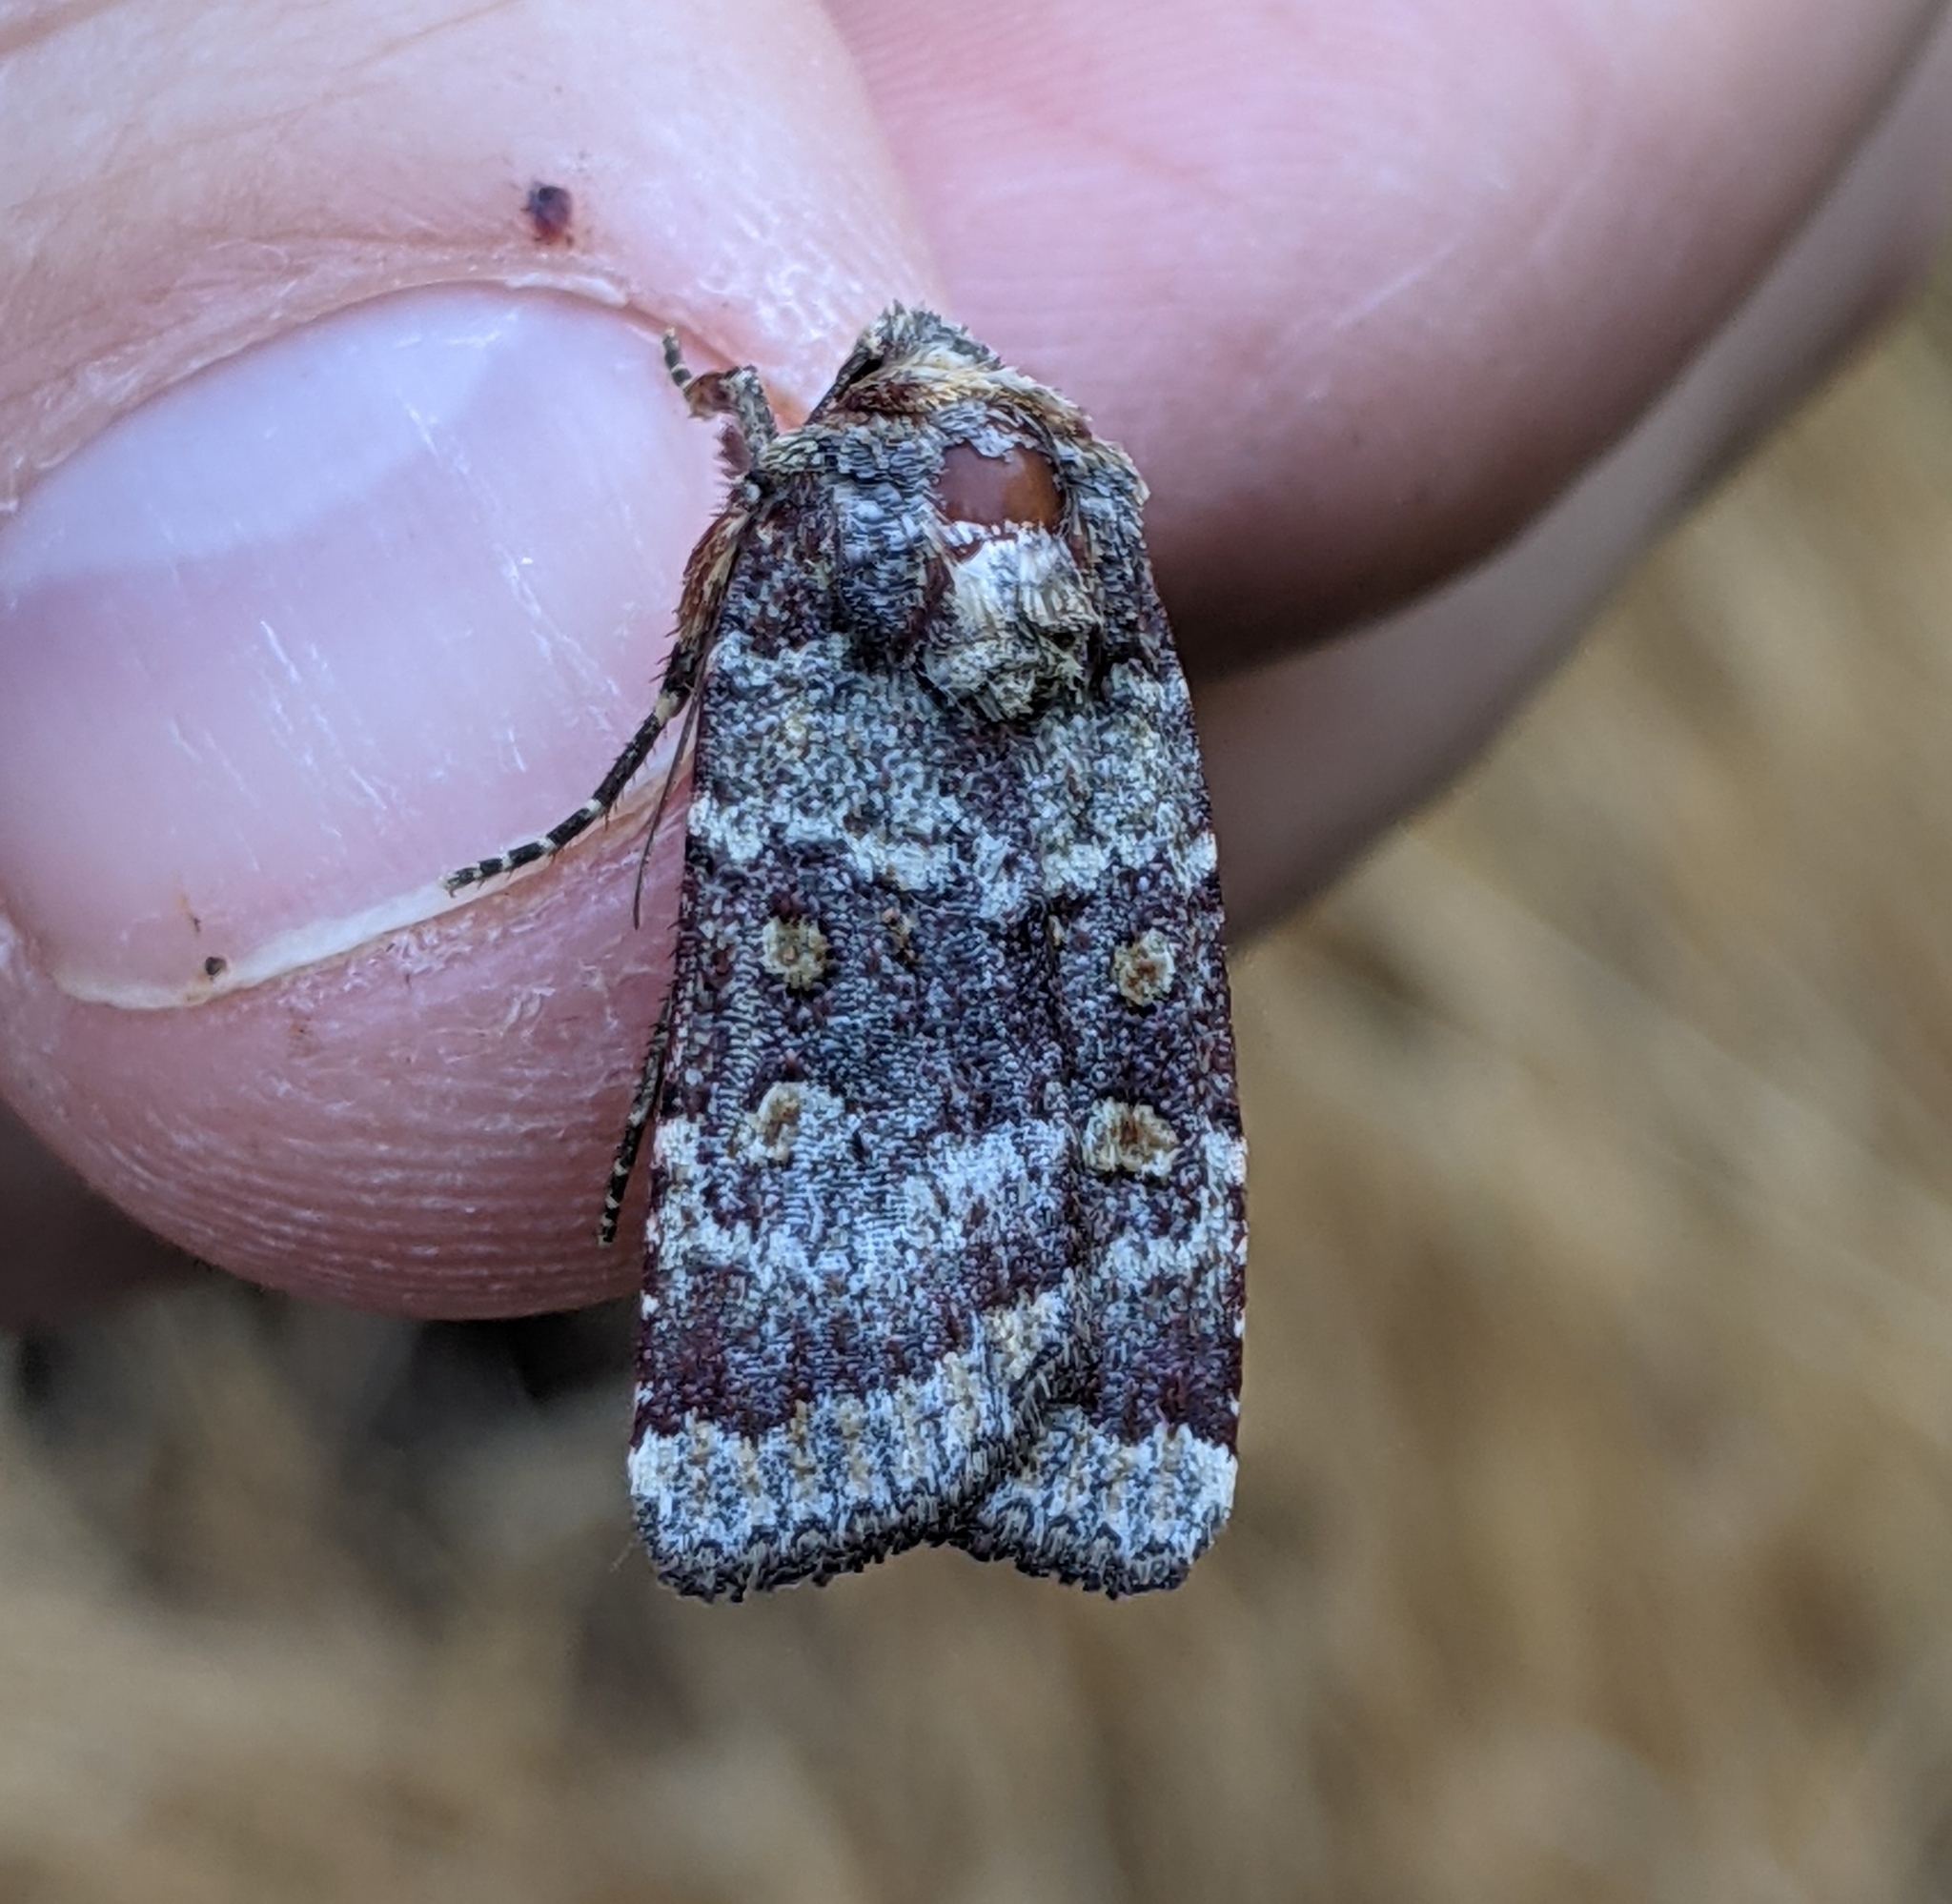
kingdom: Animalia
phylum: Arthropoda
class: Insecta
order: Lepidoptera
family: Noctuidae
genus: Abagrotis
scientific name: Abagrotis pulchrata
